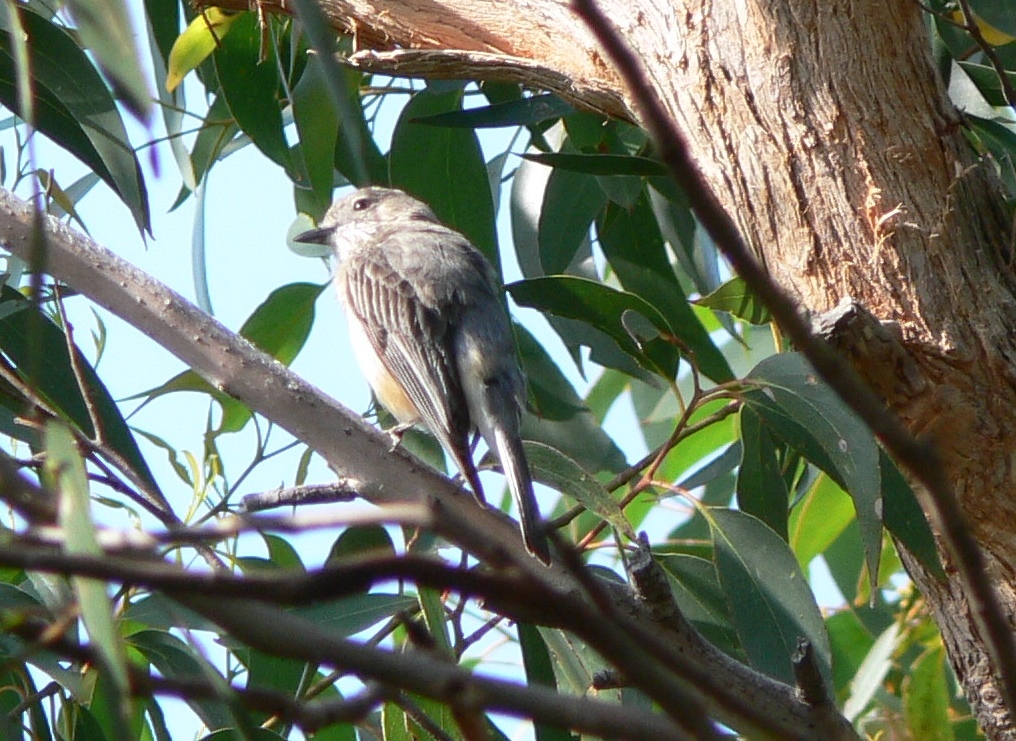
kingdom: Animalia
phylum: Chordata
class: Aves
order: Passeriformes
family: Pachycephalidae
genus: Pachycephala
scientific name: Pachycephala rufiventris
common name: Rufous whistler
